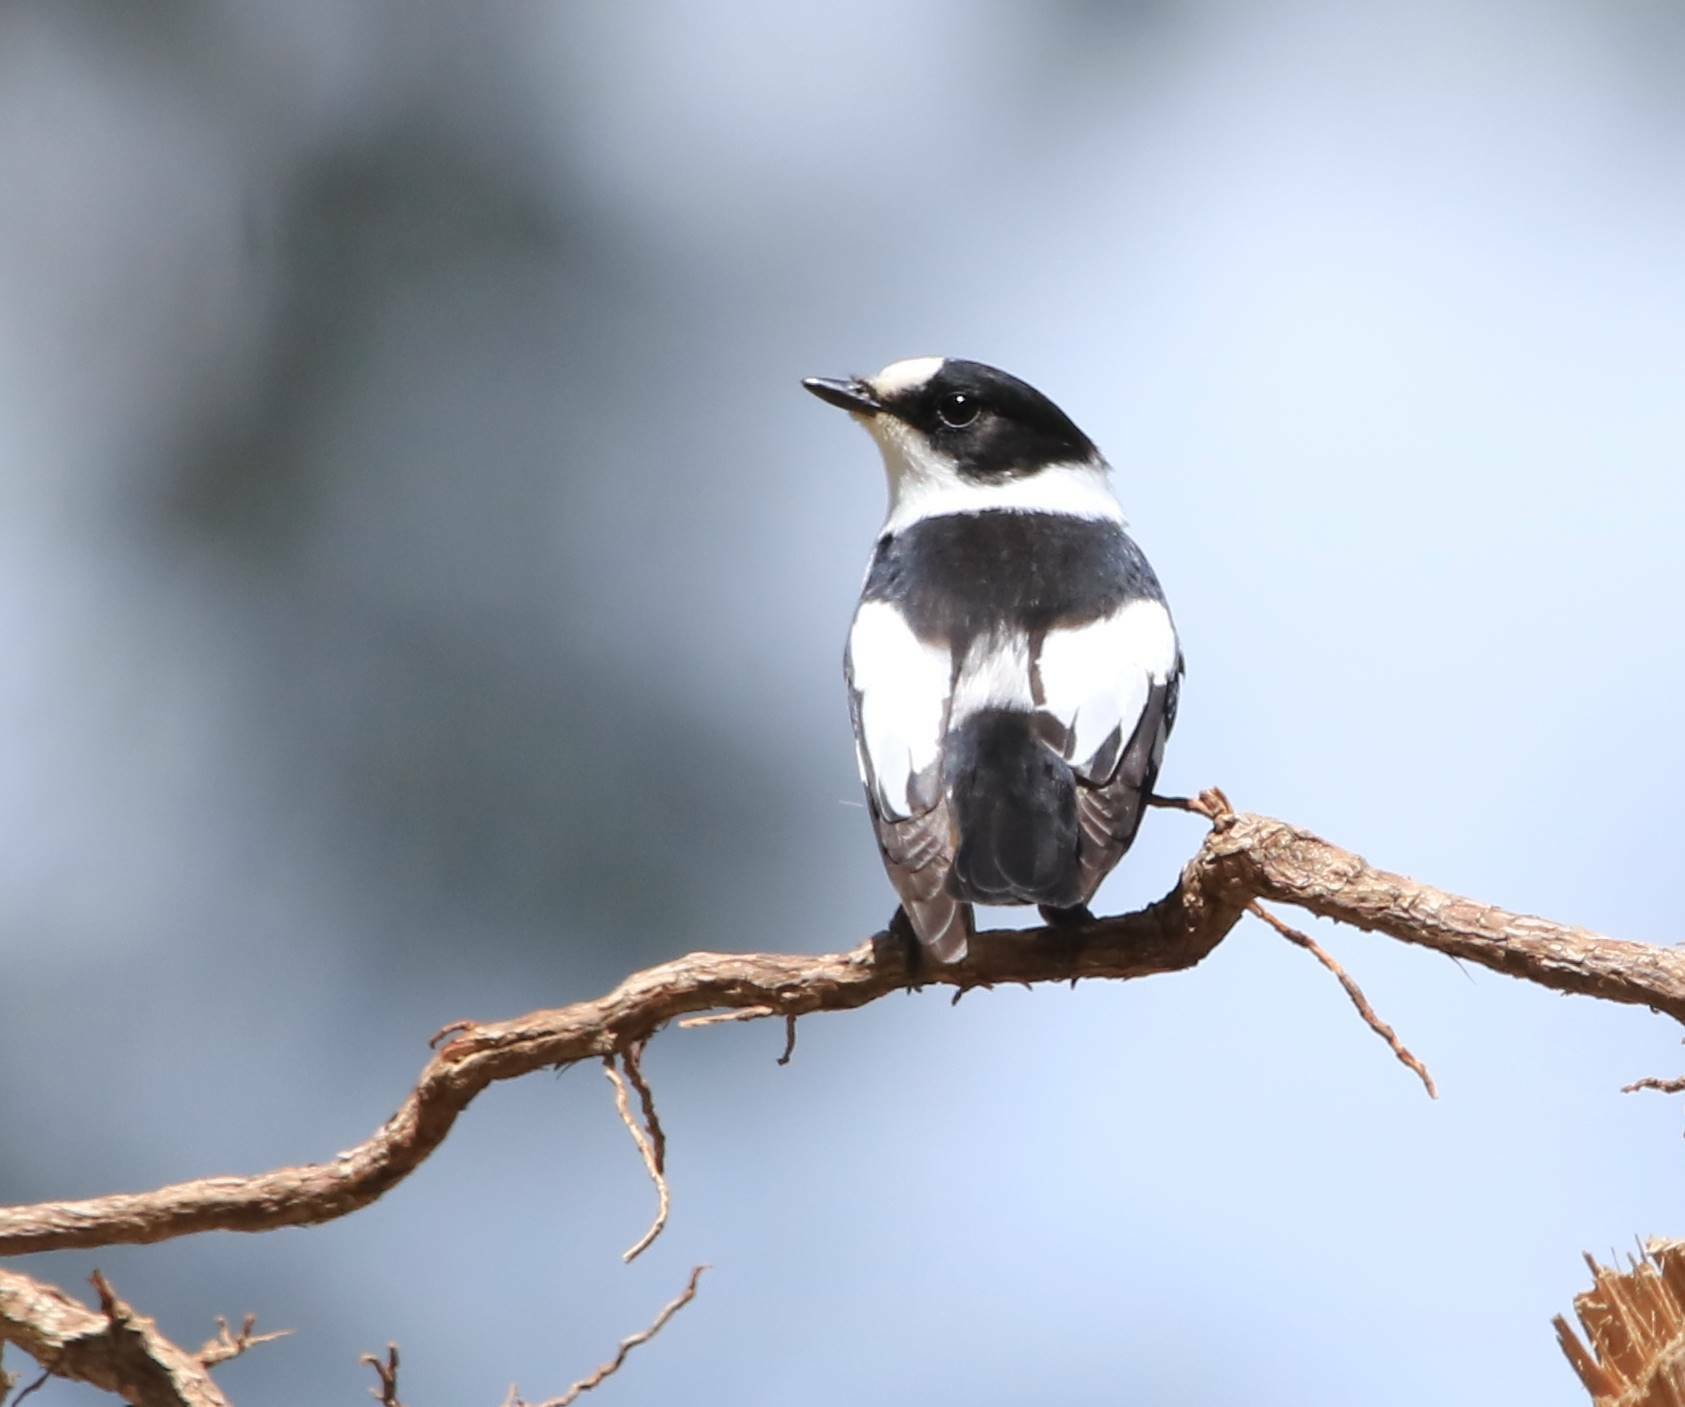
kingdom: Animalia
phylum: Chordata
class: Aves
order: Passeriformes
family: Muscicapidae
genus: Ficedula
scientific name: Ficedula albicollis
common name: Collared flycatcher
